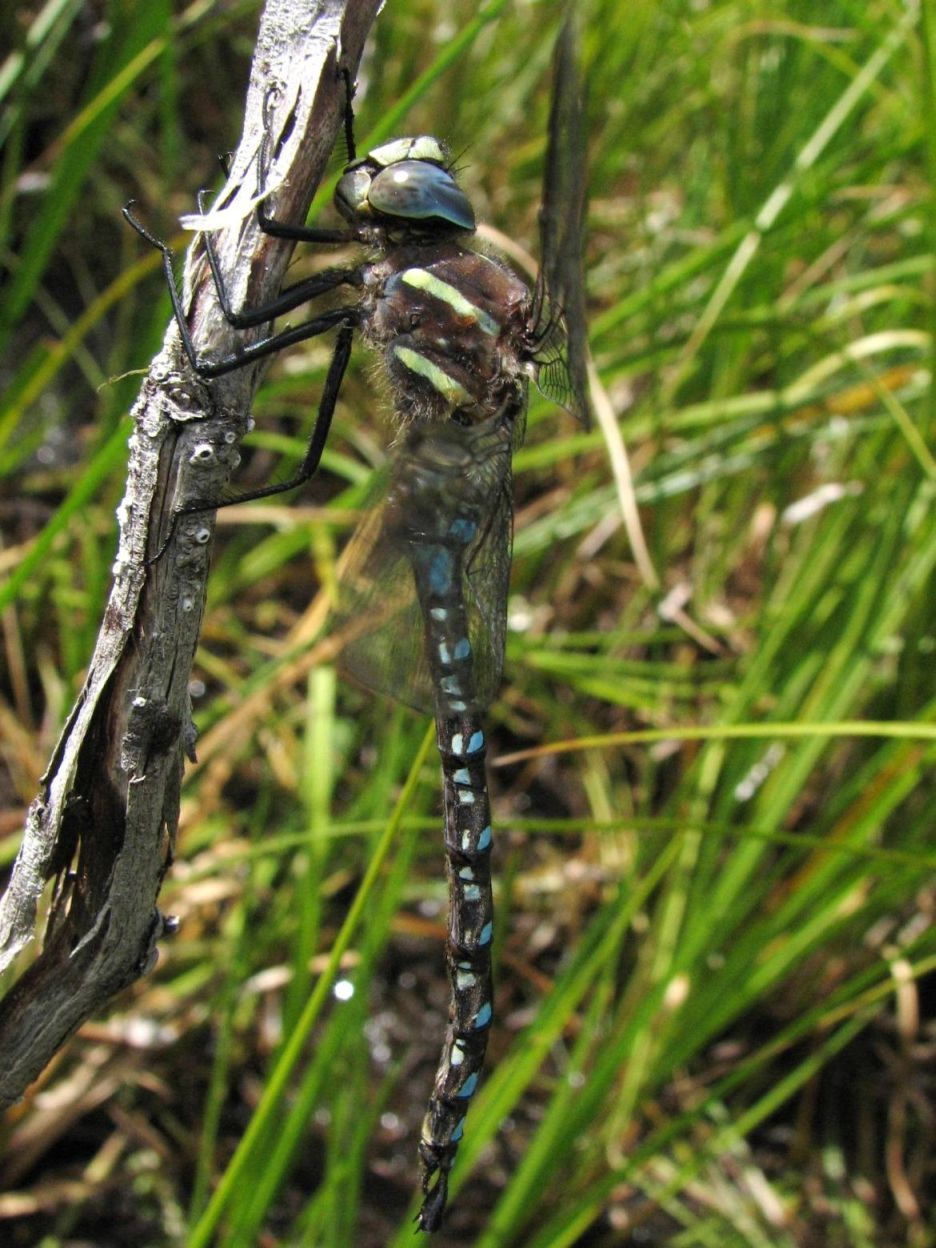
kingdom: Animalia
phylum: Arthropoda
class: Insecta
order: Odonata
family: Aeshnidae
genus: Aeshna
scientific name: Aeshna palmata
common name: Paddle-tailed darner
